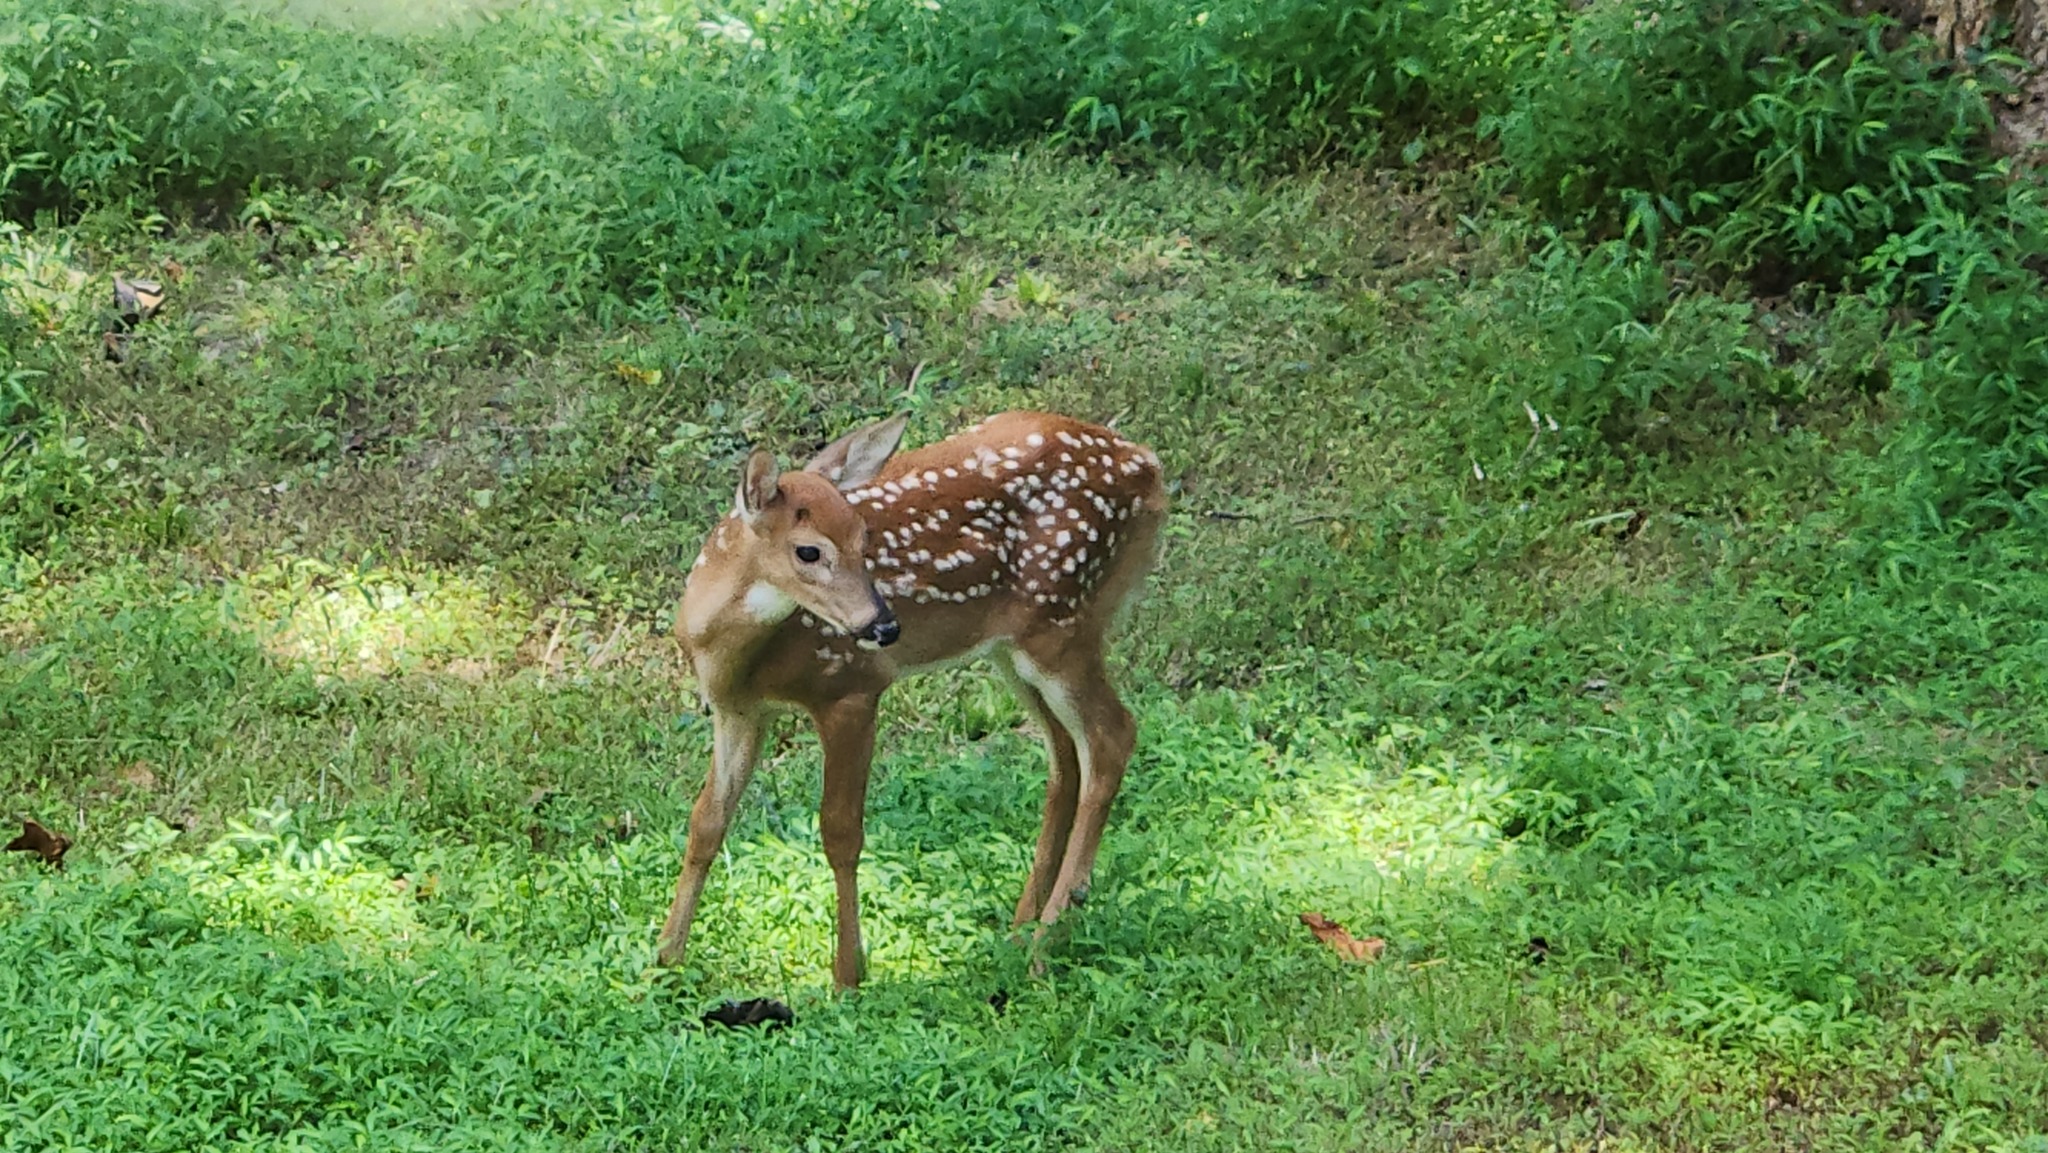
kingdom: Animalia
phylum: Chordata
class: Mammalia
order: Artiodactyla
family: Cervidae
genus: Odocoileus
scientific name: Odocoileus virginianus
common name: White-tailed deer
